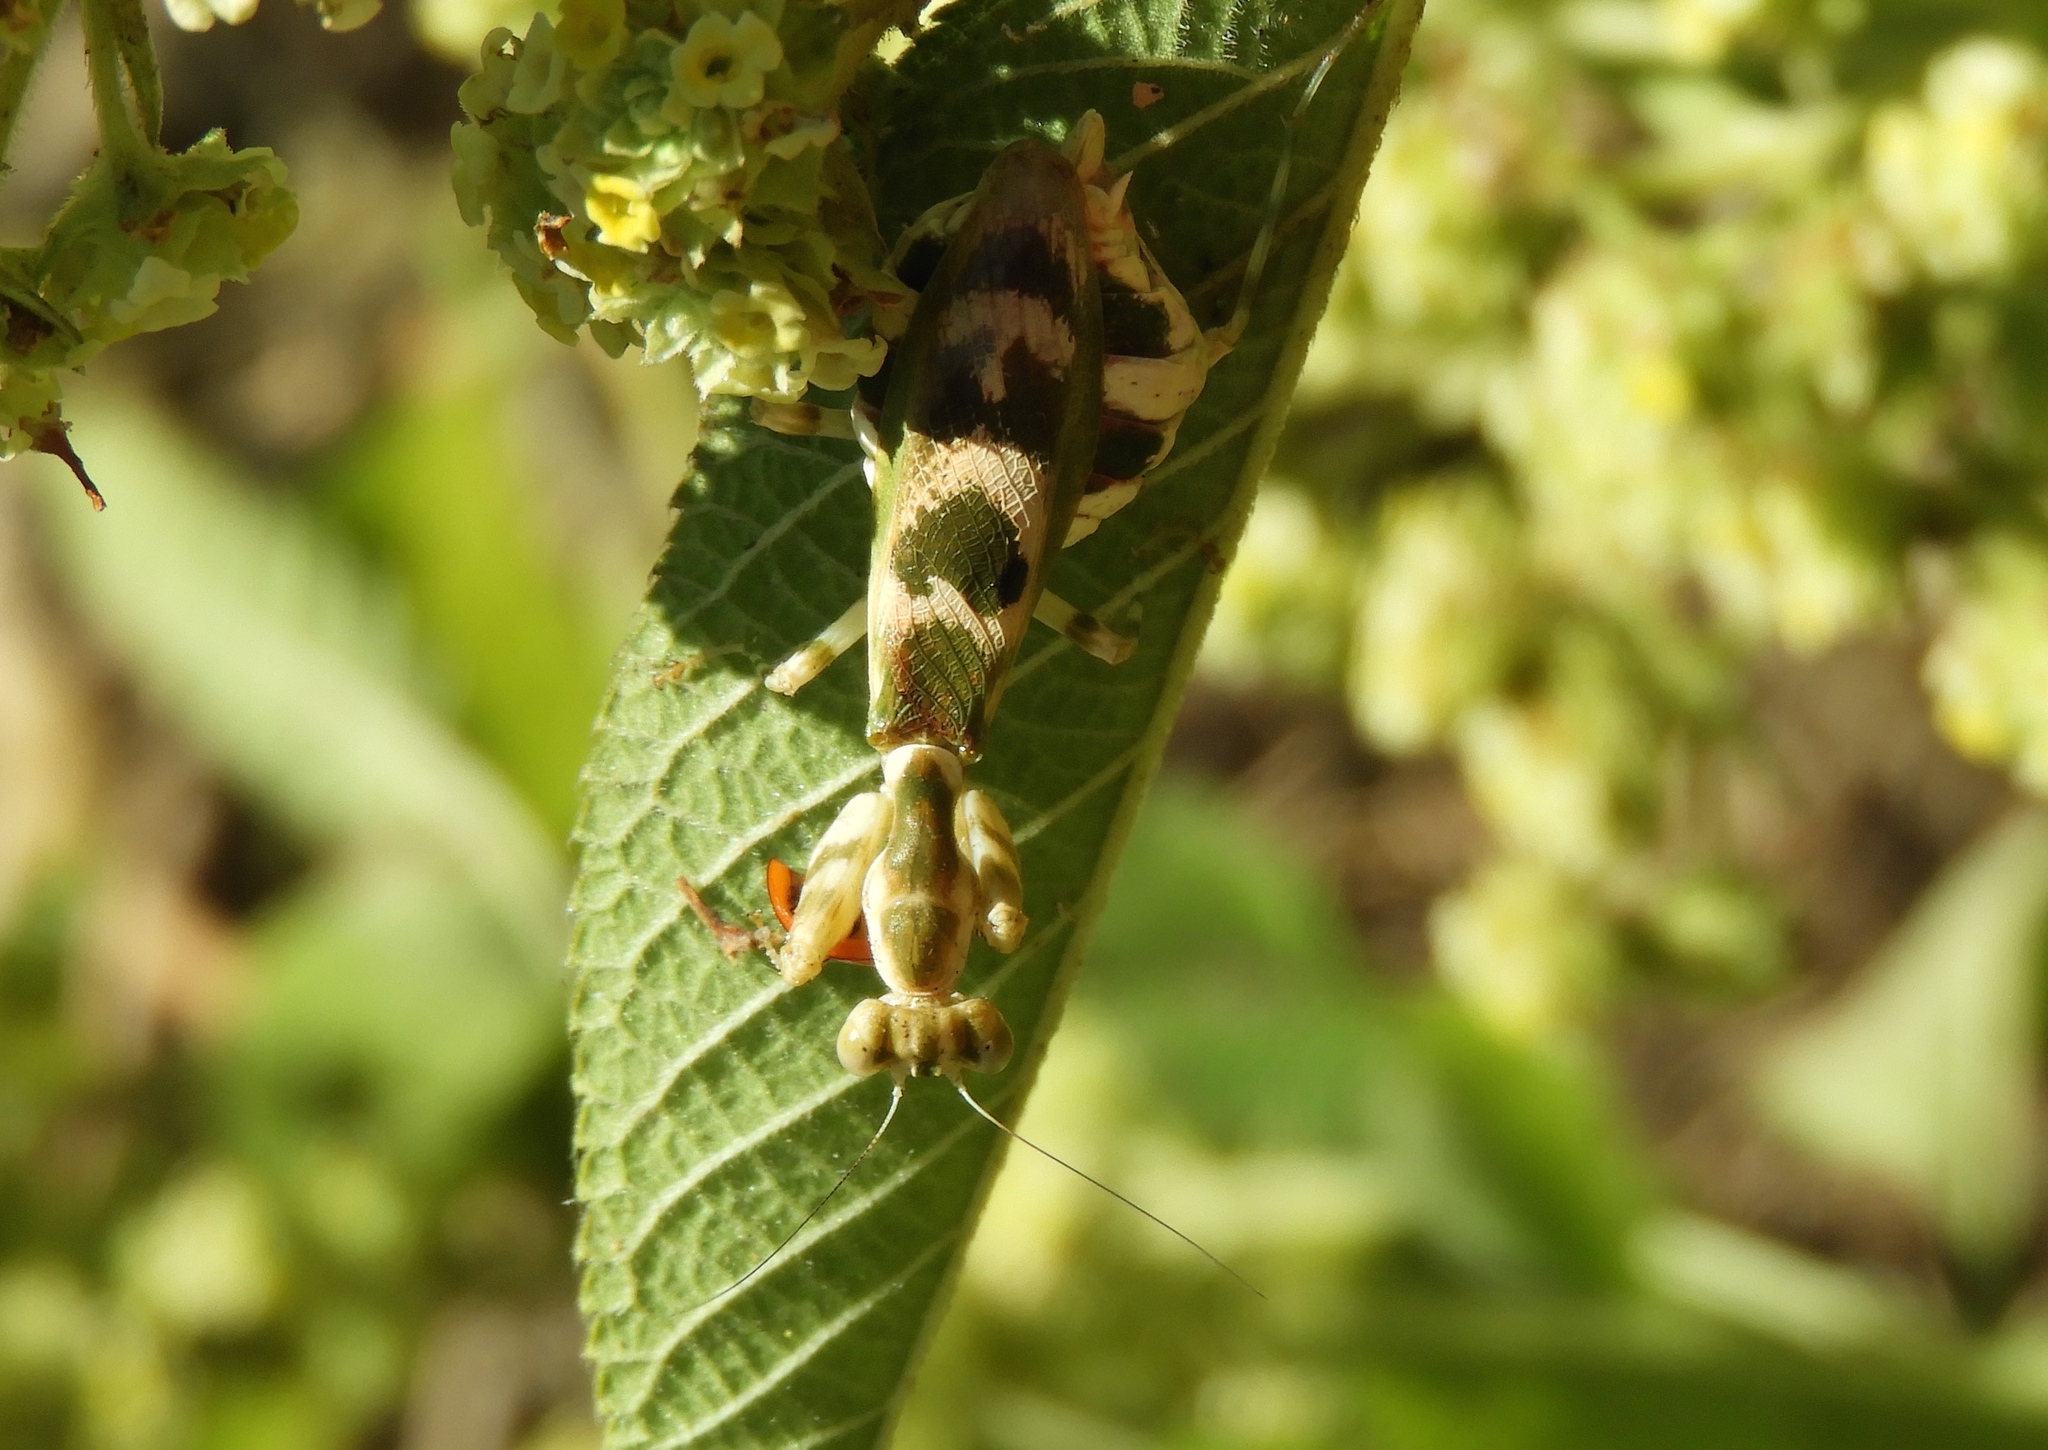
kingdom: Animalia
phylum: Arthropoda
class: Insecta
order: Mantodea
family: Acanthopidae
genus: Acontista
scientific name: Acontista mexicana
